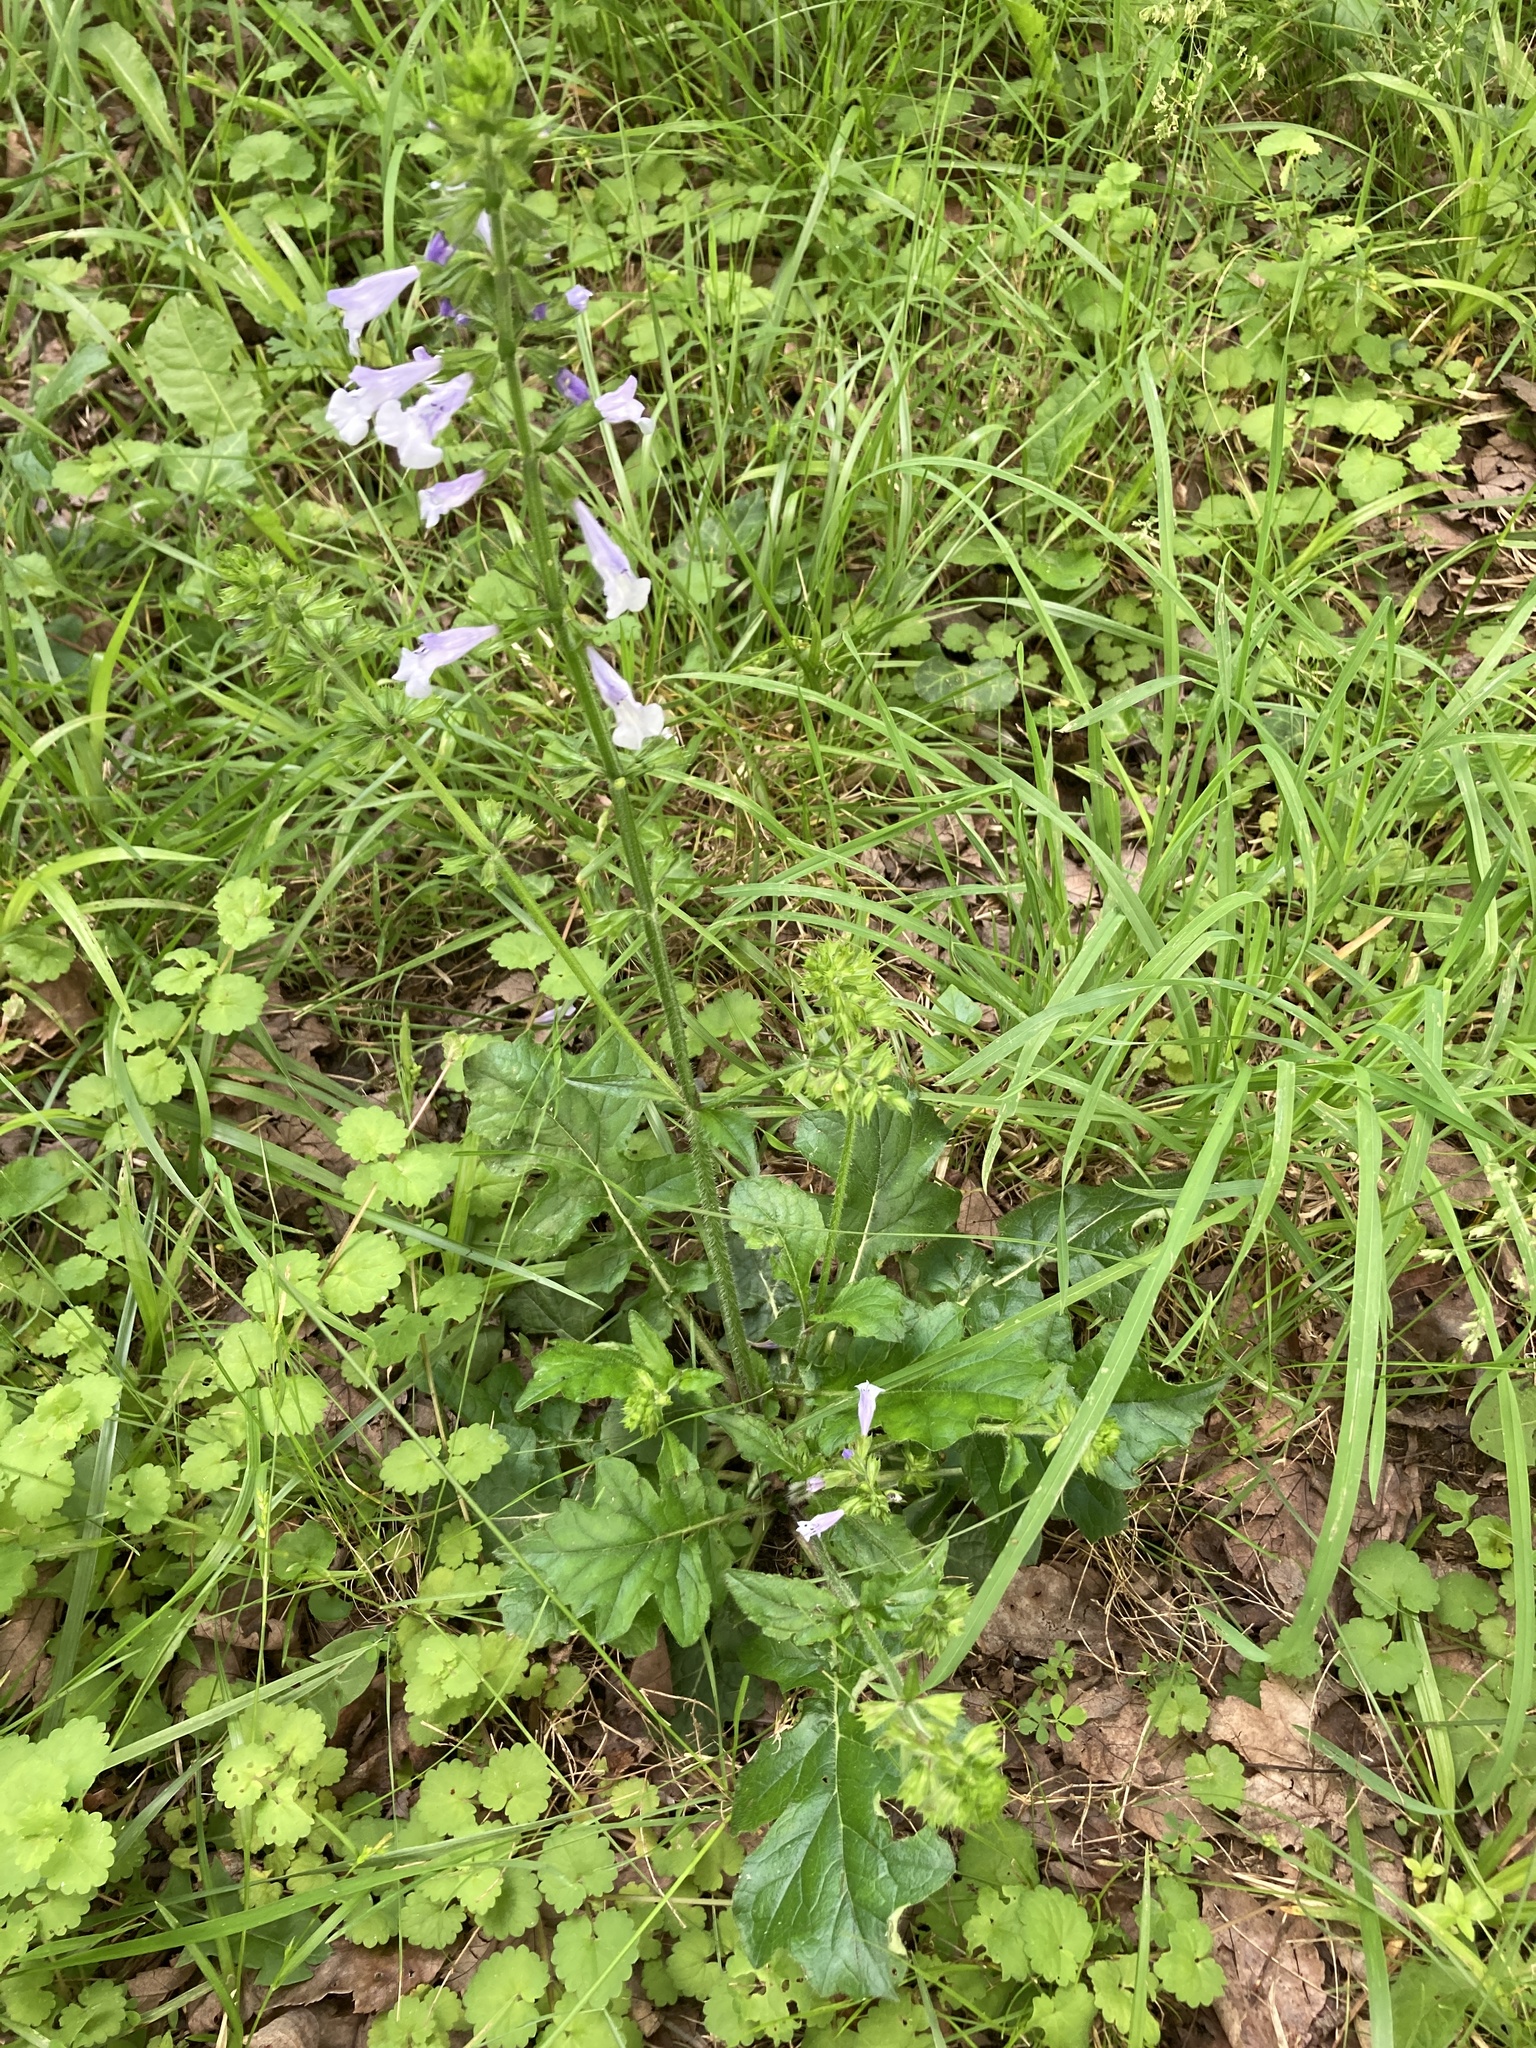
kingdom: Plantae
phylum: Tracheophyta
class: Magnoliopsida
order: Lamiales
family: Lamiaceae
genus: Salvia
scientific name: Salvia lyrata
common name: Cancerweed
